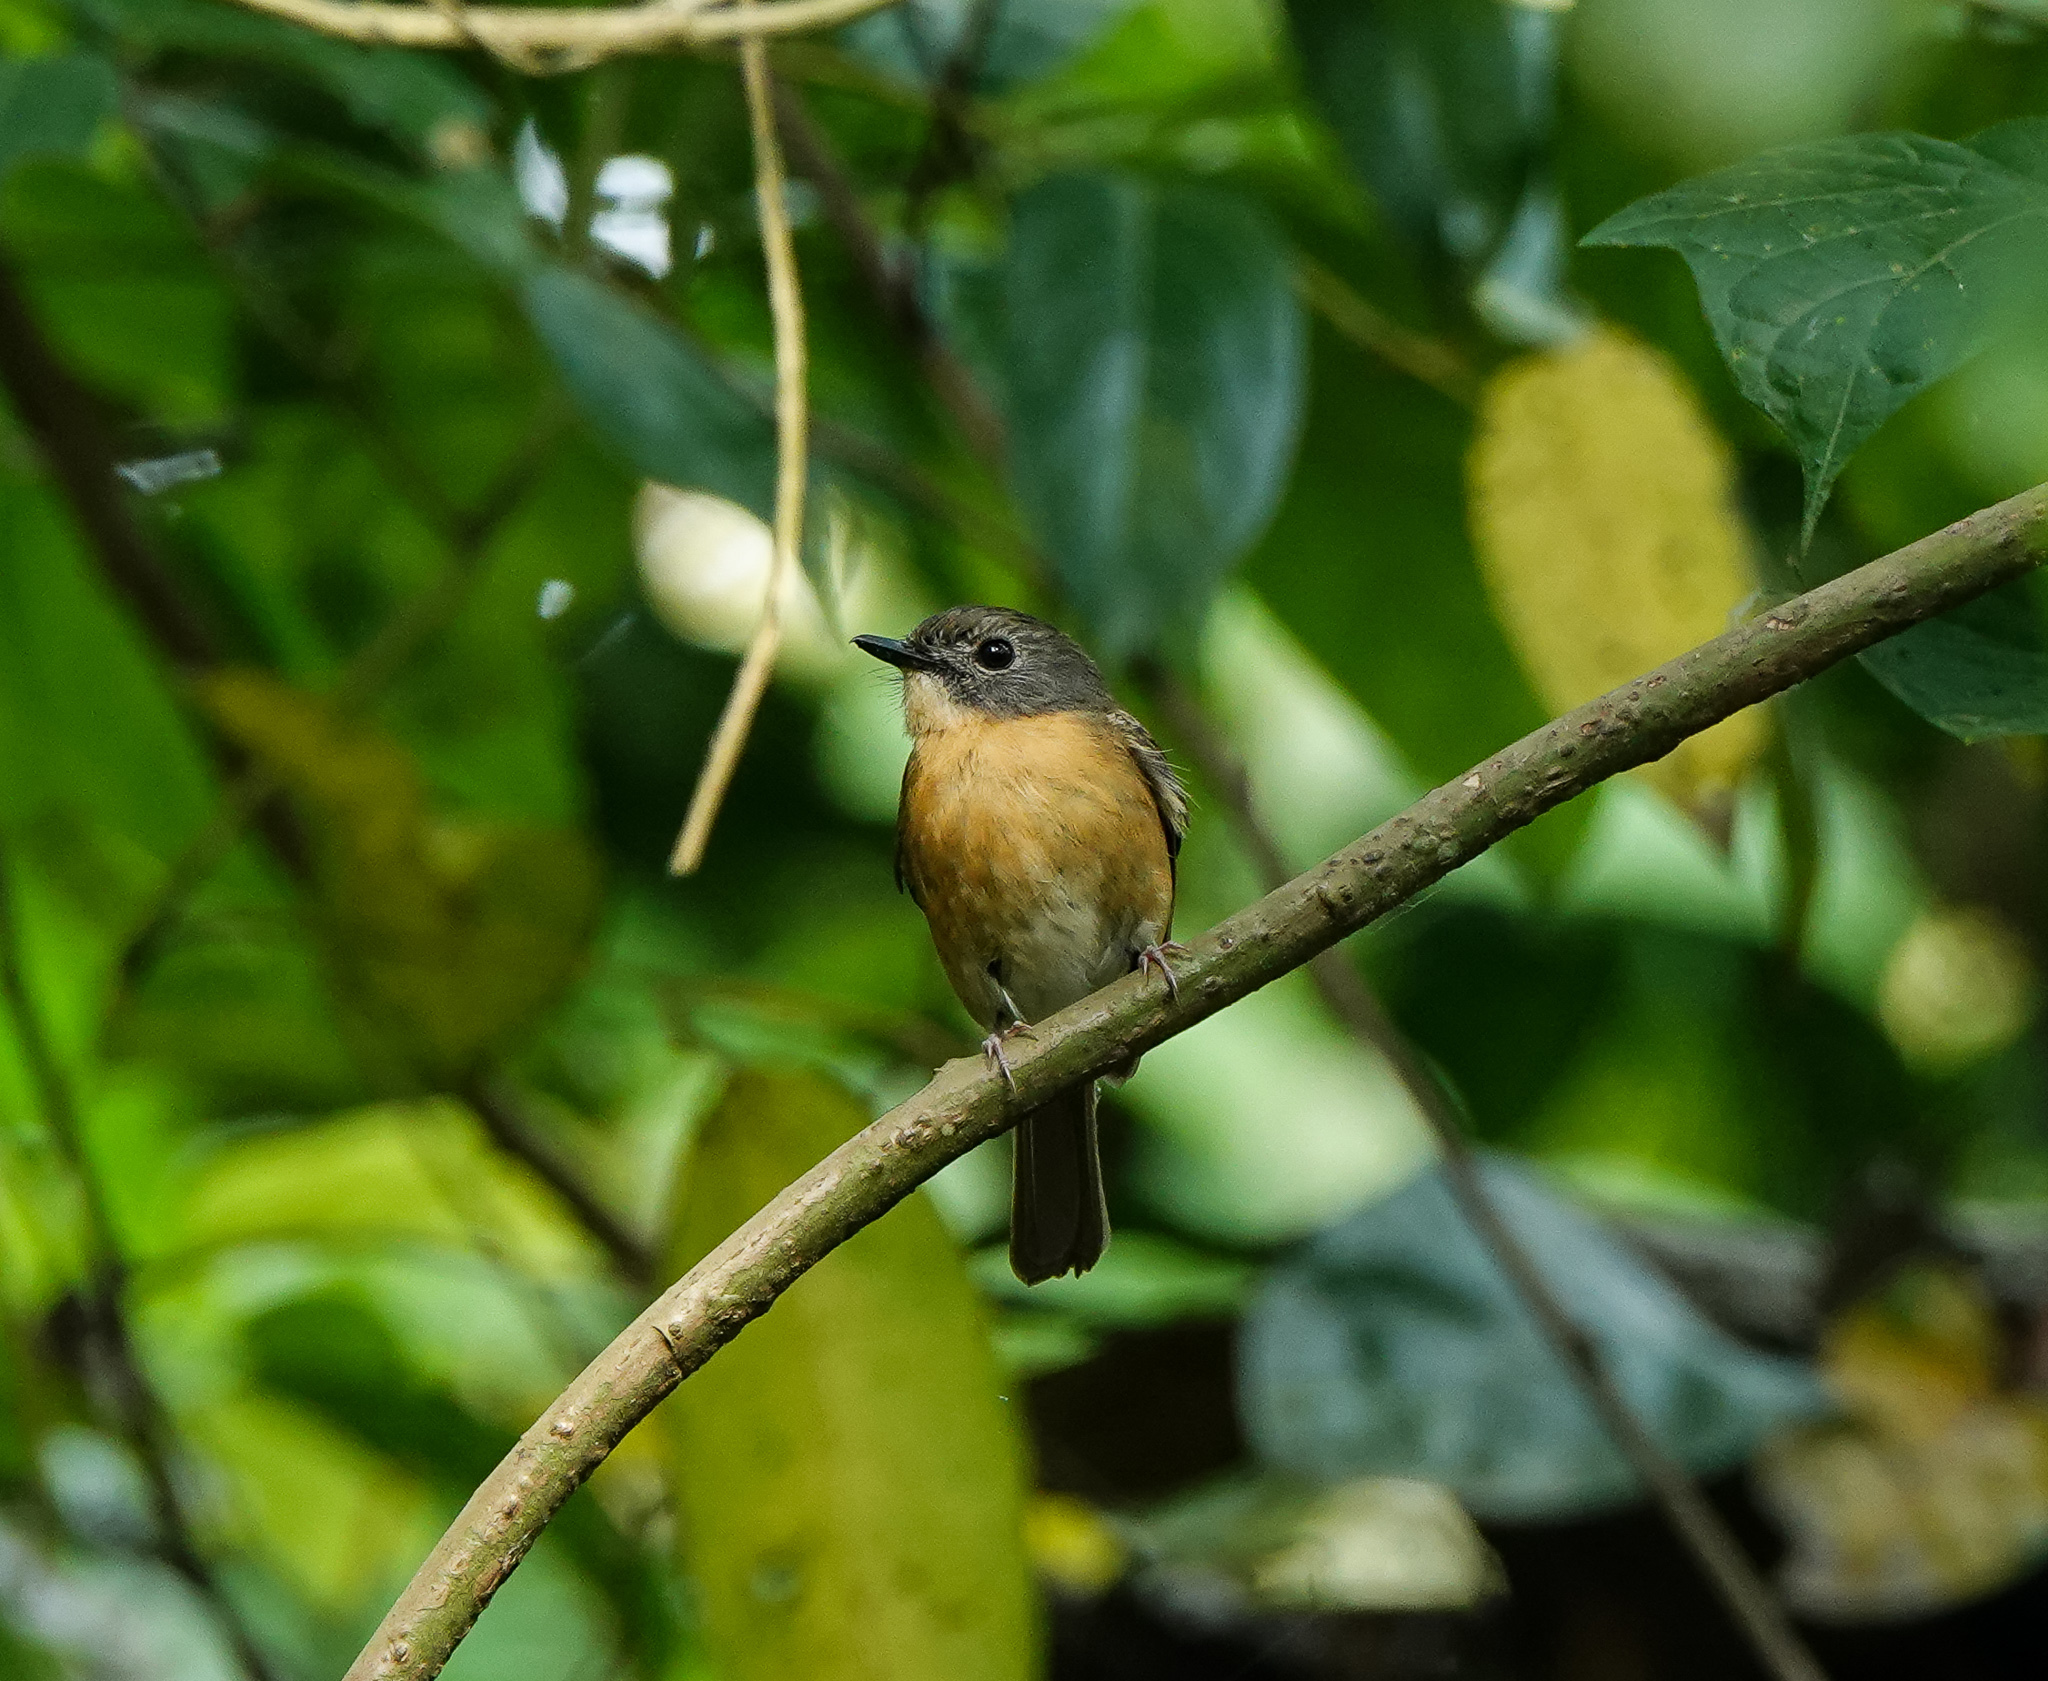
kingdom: Animalia
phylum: Chordata
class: Aves
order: Passeriformes
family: Muscicapidae
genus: Cyornis
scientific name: Cyornis poliogenys
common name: Pale-chinned blue flycatcher
